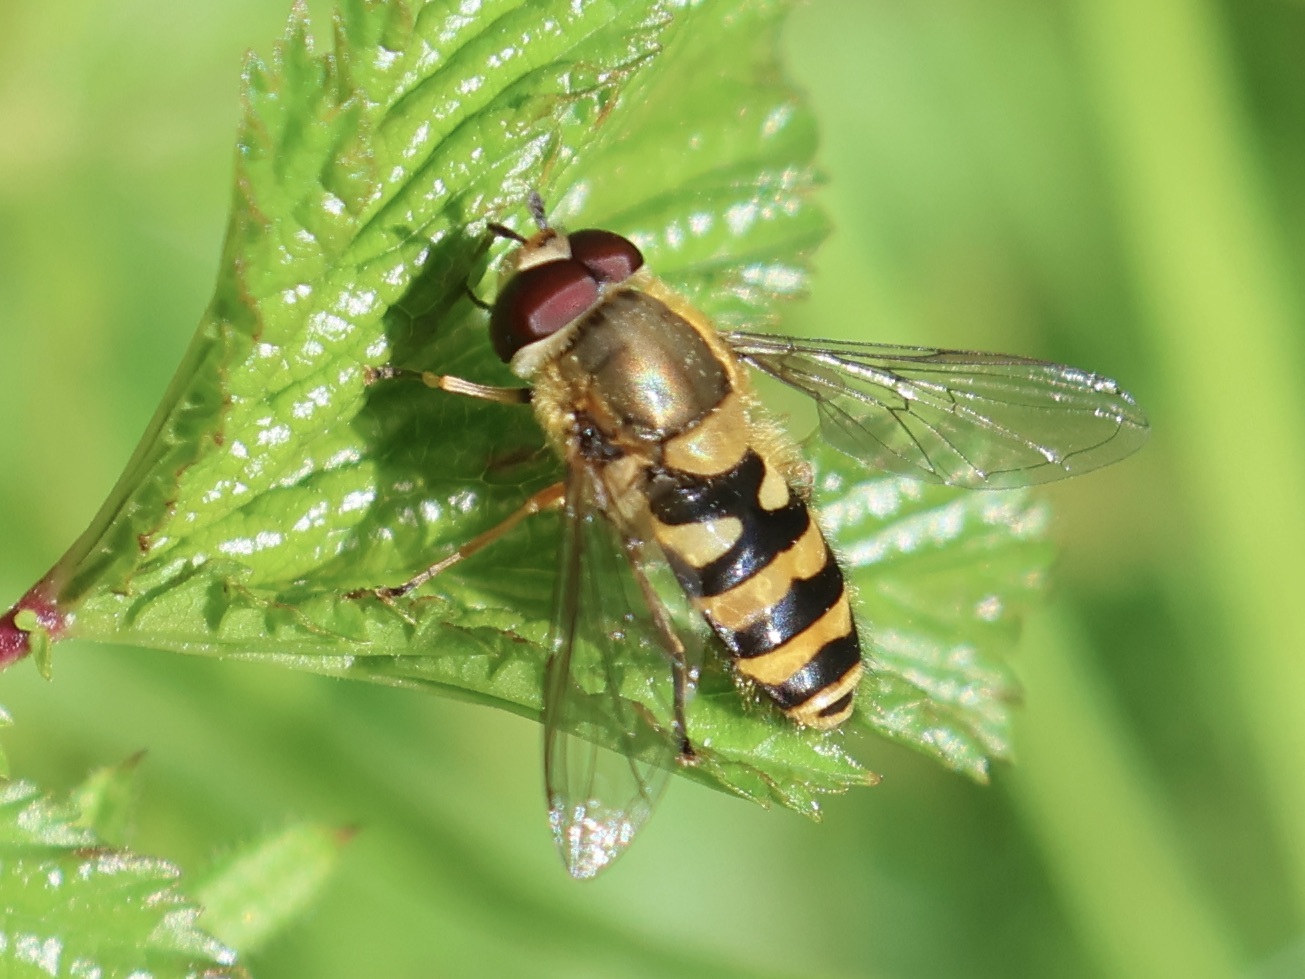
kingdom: Animalia
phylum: Arthropoda
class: Insecta
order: Diptera
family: Syrphidae
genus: Syrphus
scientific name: Syrphus
